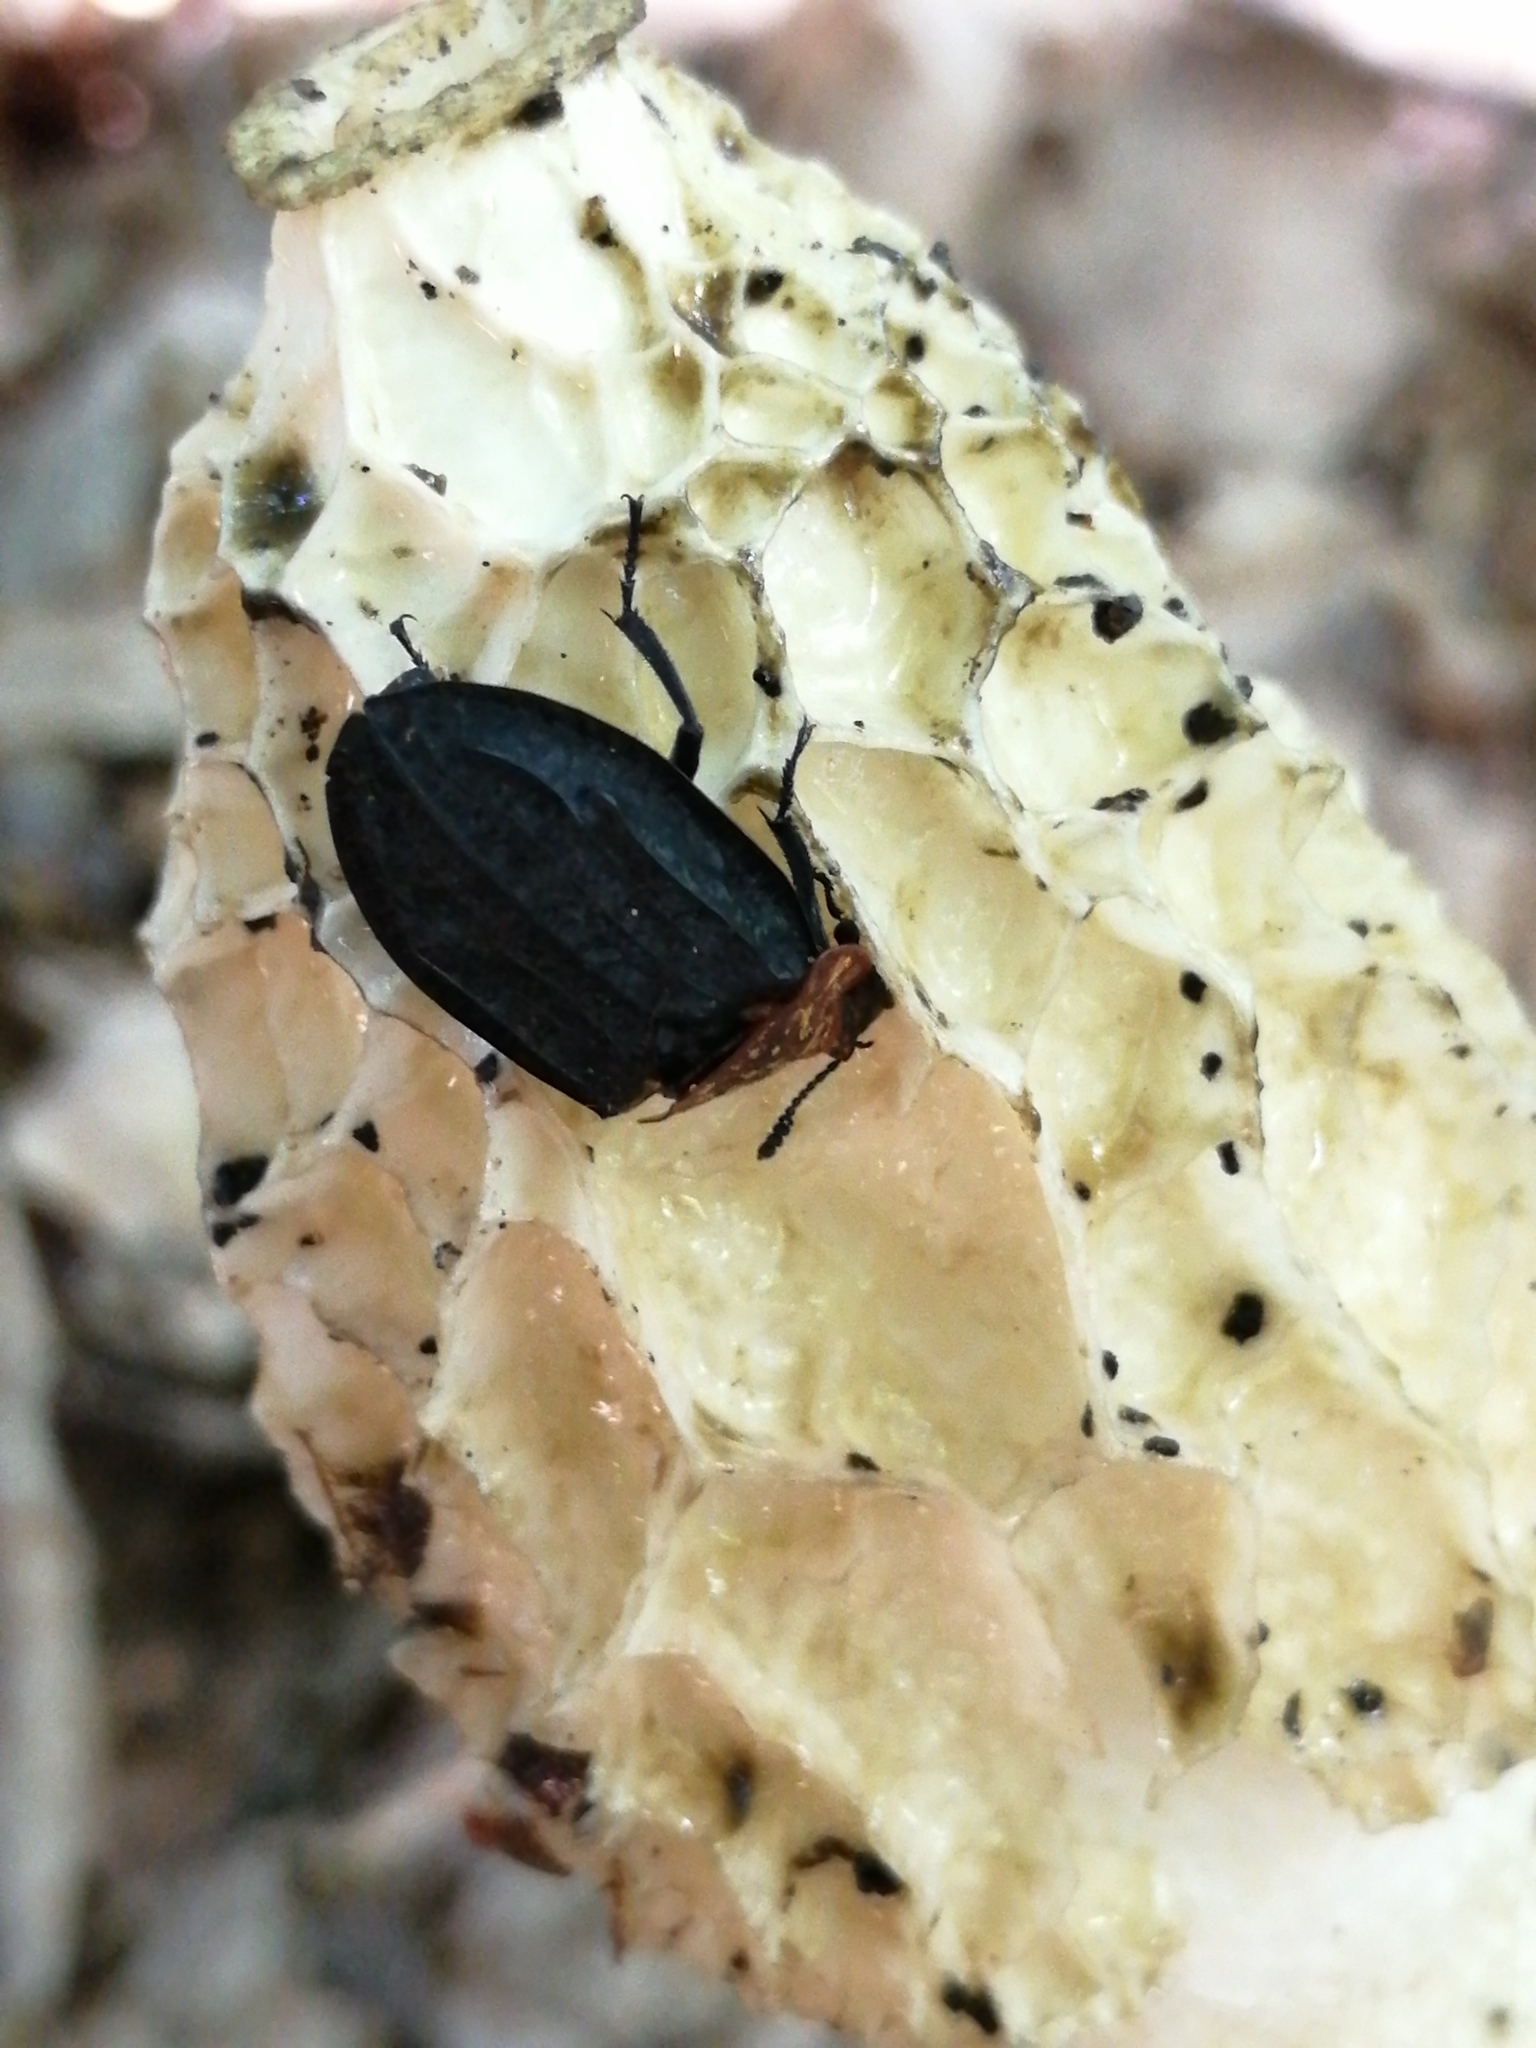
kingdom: Animalia
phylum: Arthropoda
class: Insecta
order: Coleoptera
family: Staphylinidae
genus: Oiceoptoma
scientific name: Oiceoptoma thoracicum
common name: Red-breasted carrion beetle
